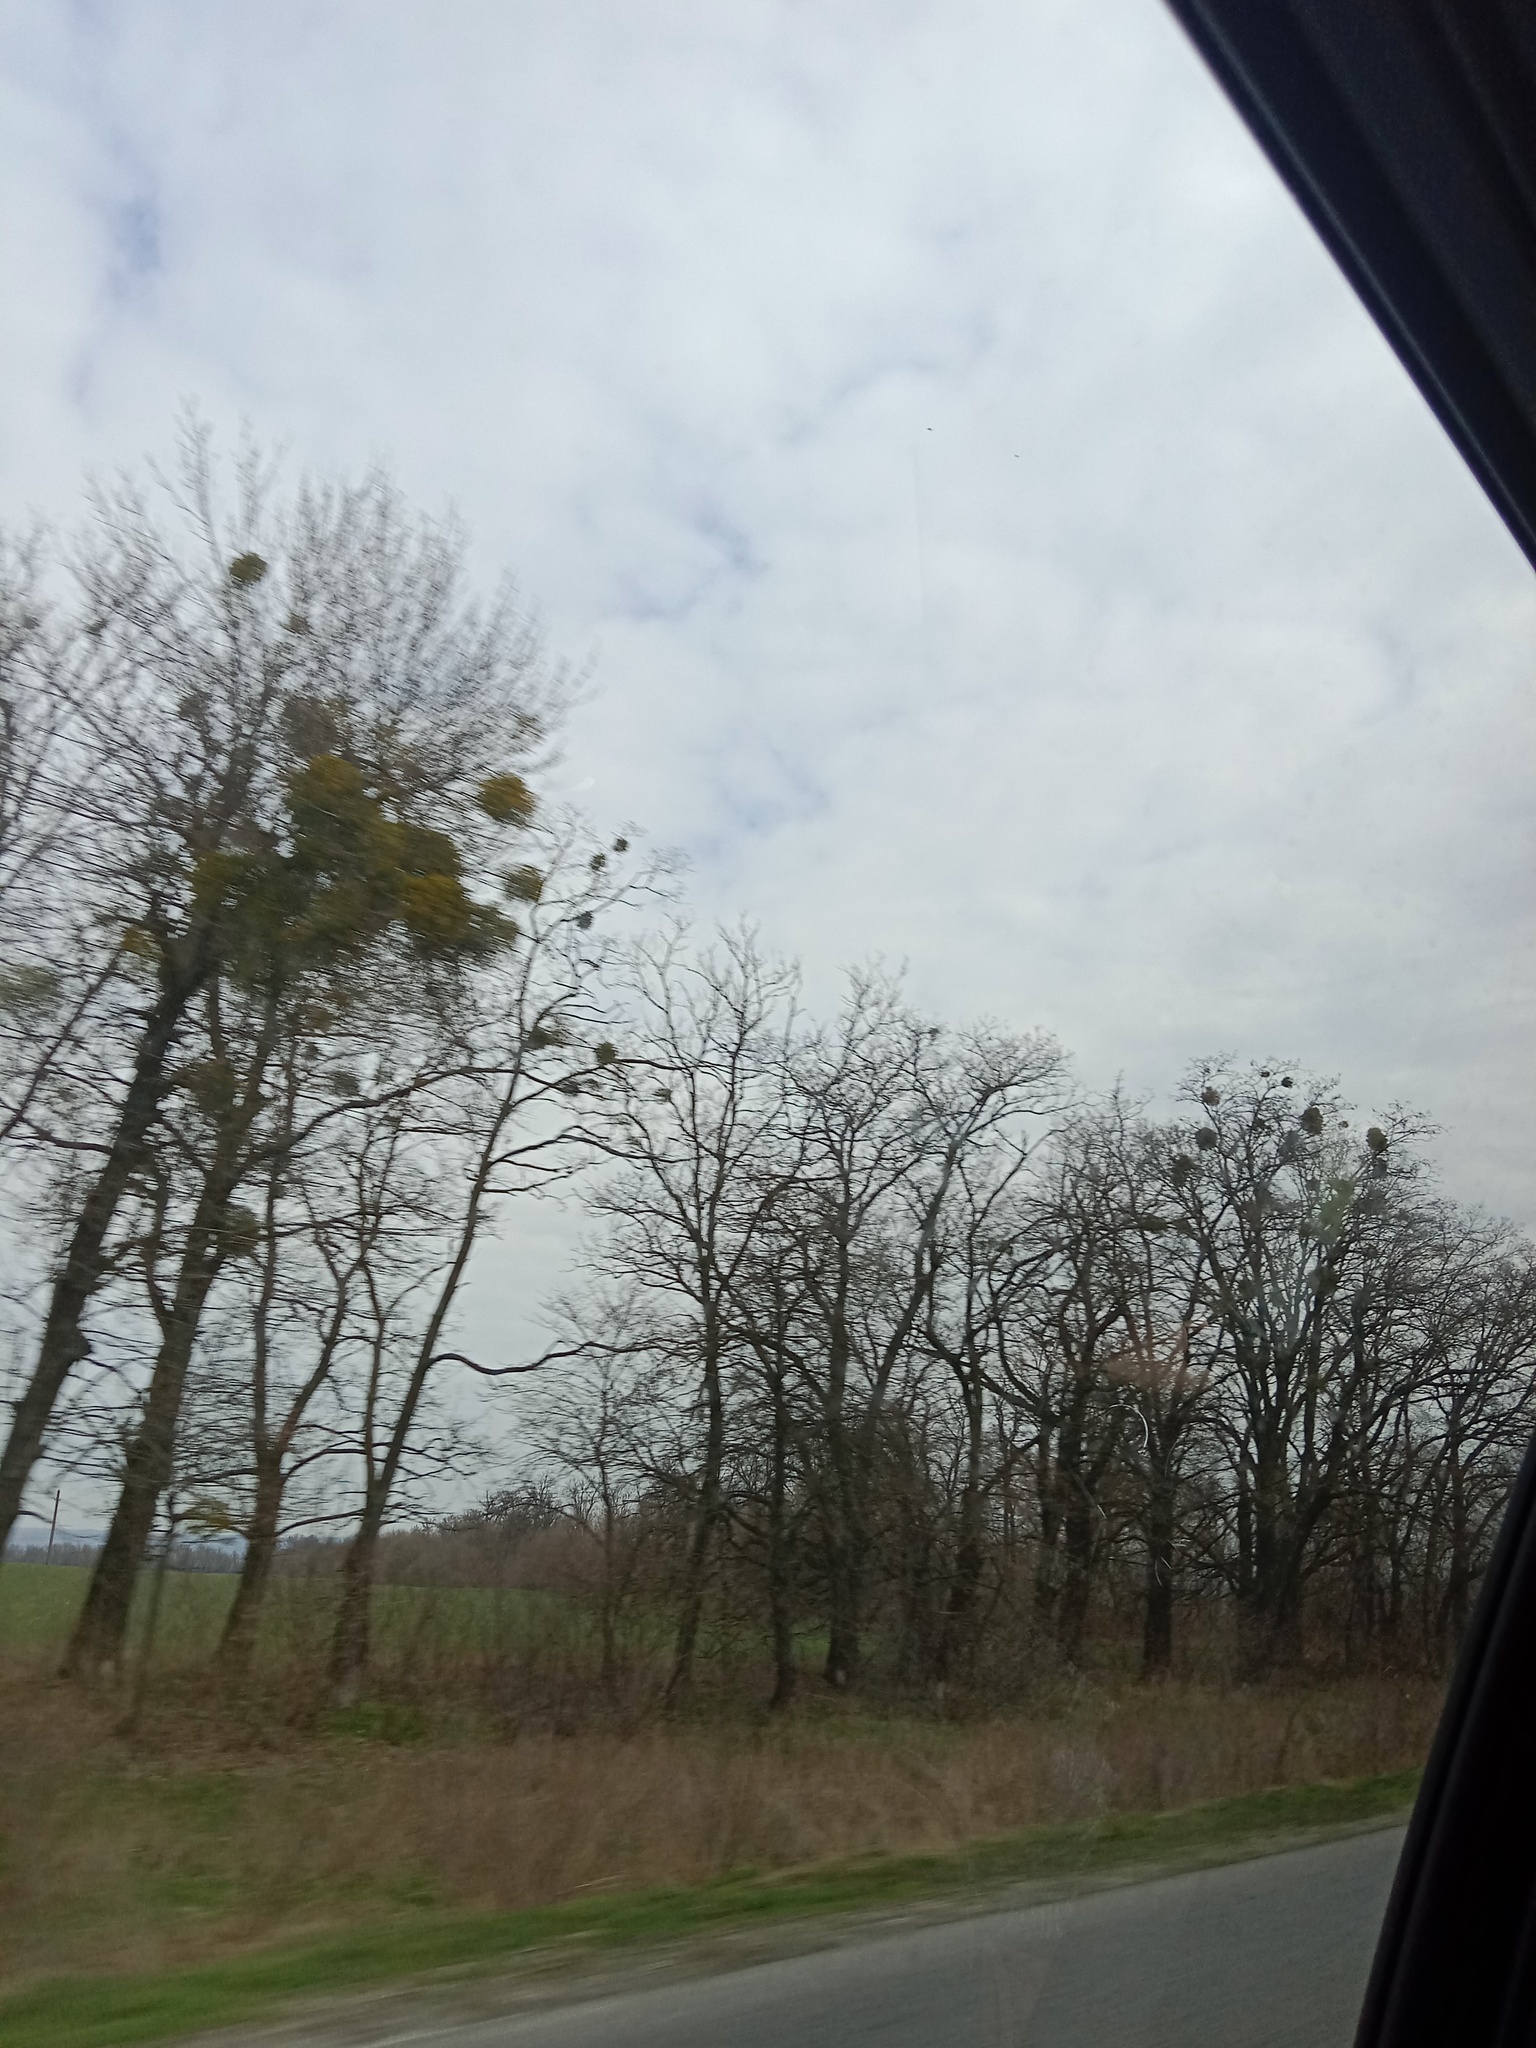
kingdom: Plantae
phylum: Tracheophyta
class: Magnoliopsida
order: Santalales
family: Viscaceae
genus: Viscum
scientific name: Viscum album
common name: Mistletoe
